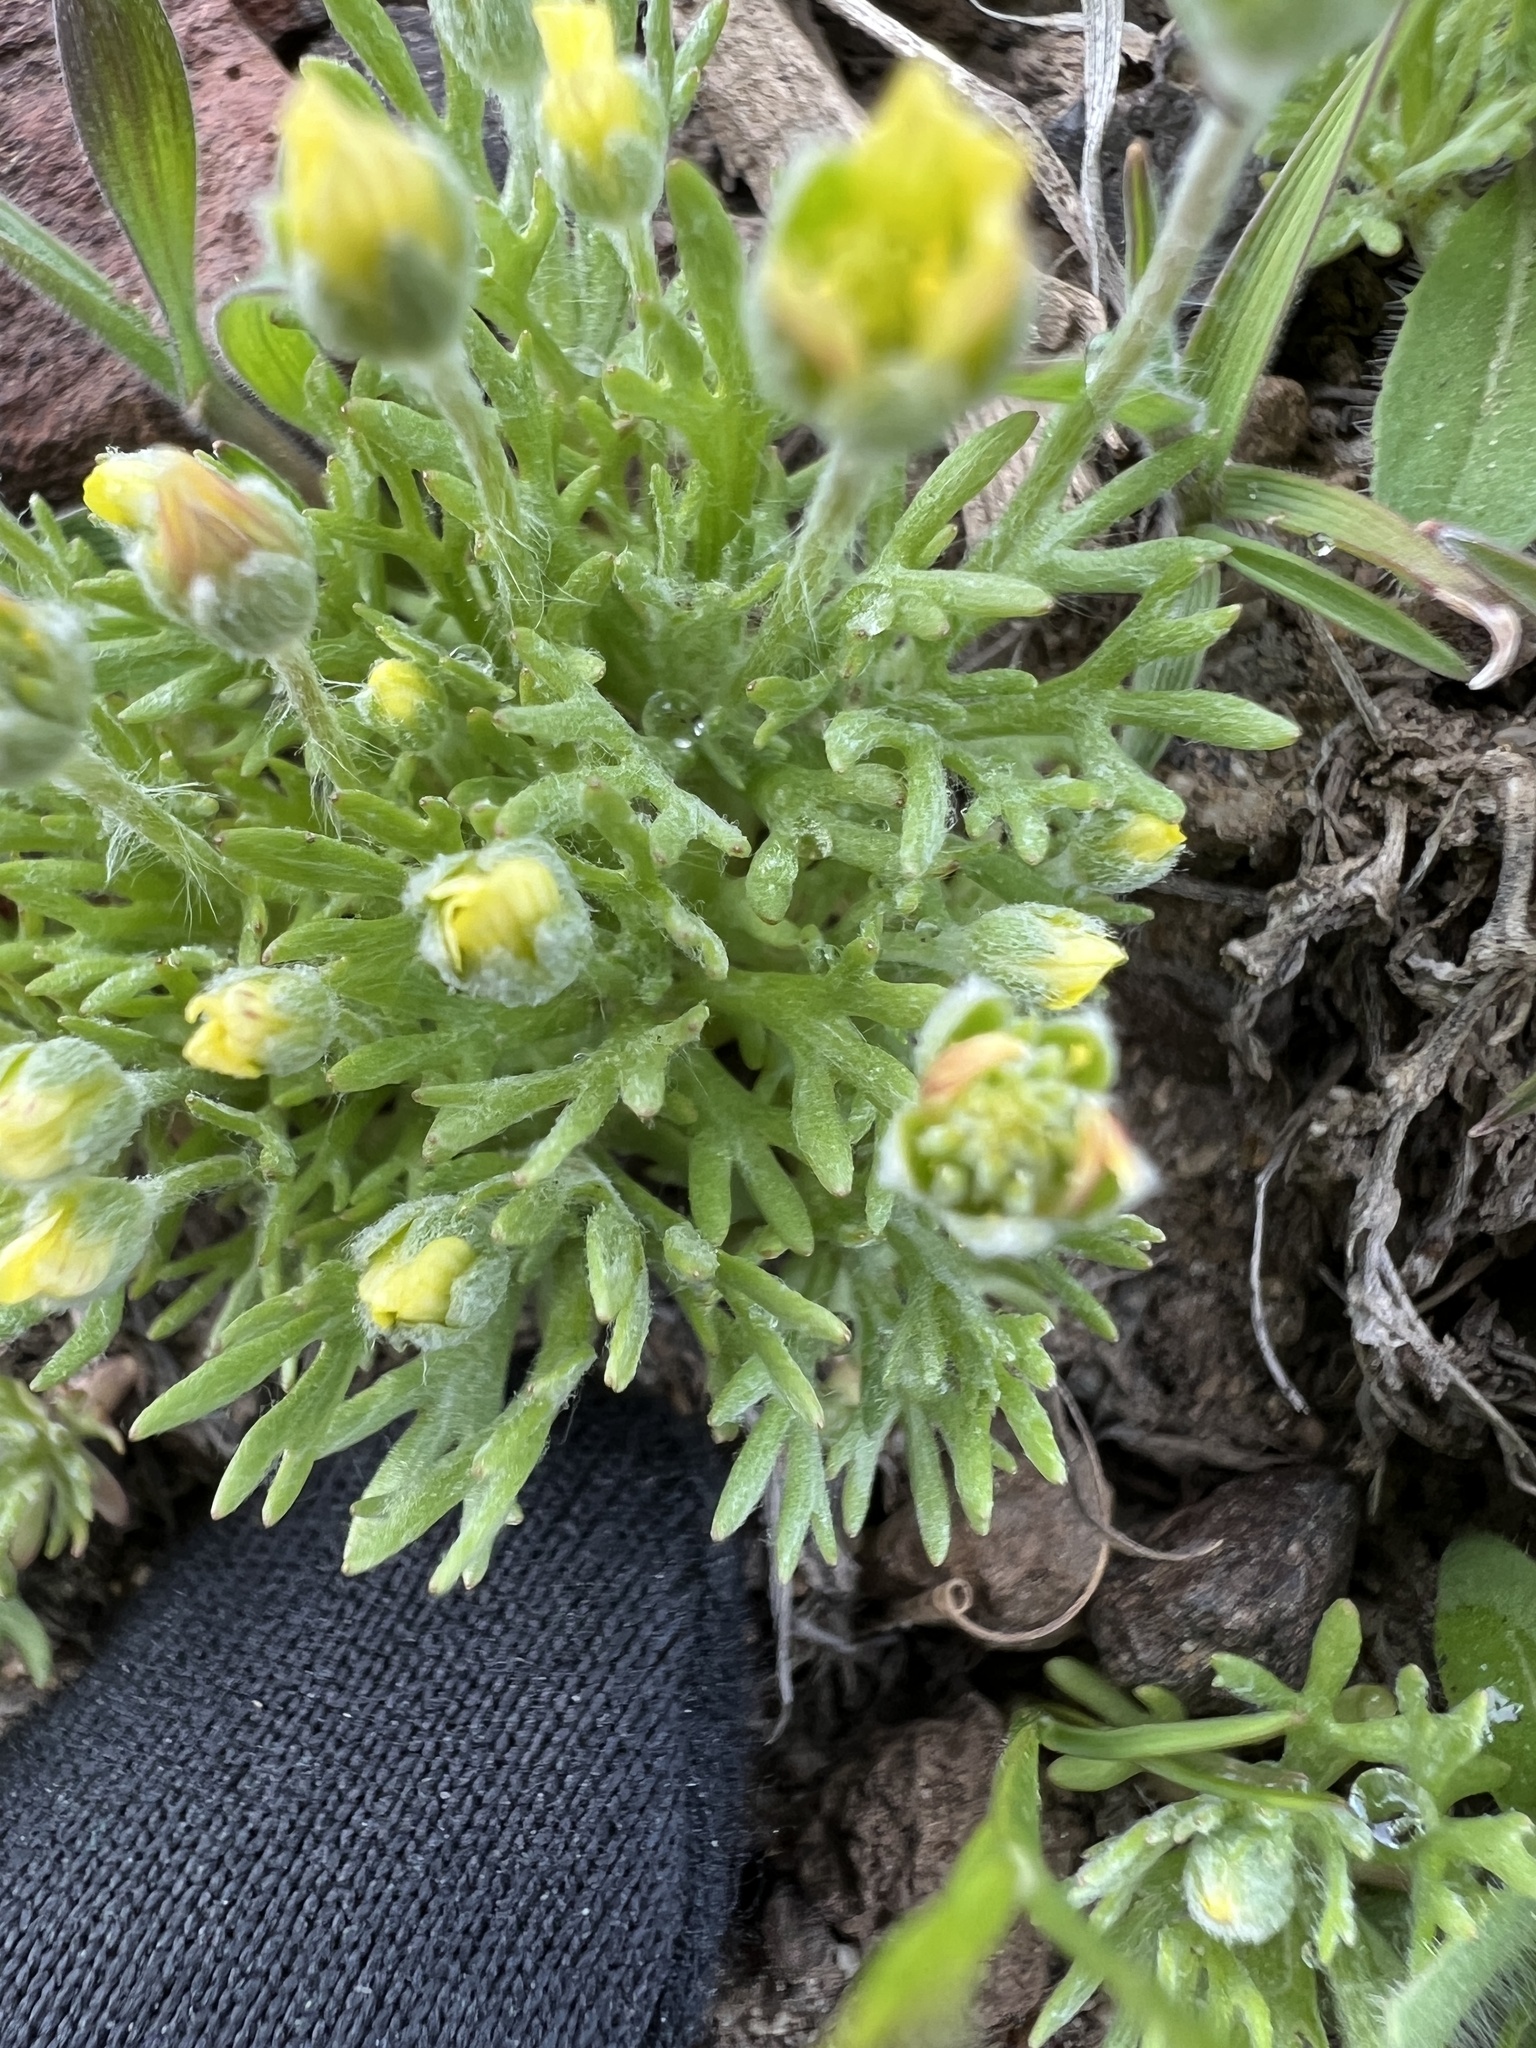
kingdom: Plantae
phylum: Tracheophyta
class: Magnoliopsida
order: Ranunculales
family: Ranunculaceae
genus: Ceratocephala
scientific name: Ceratocephala orthoceras
